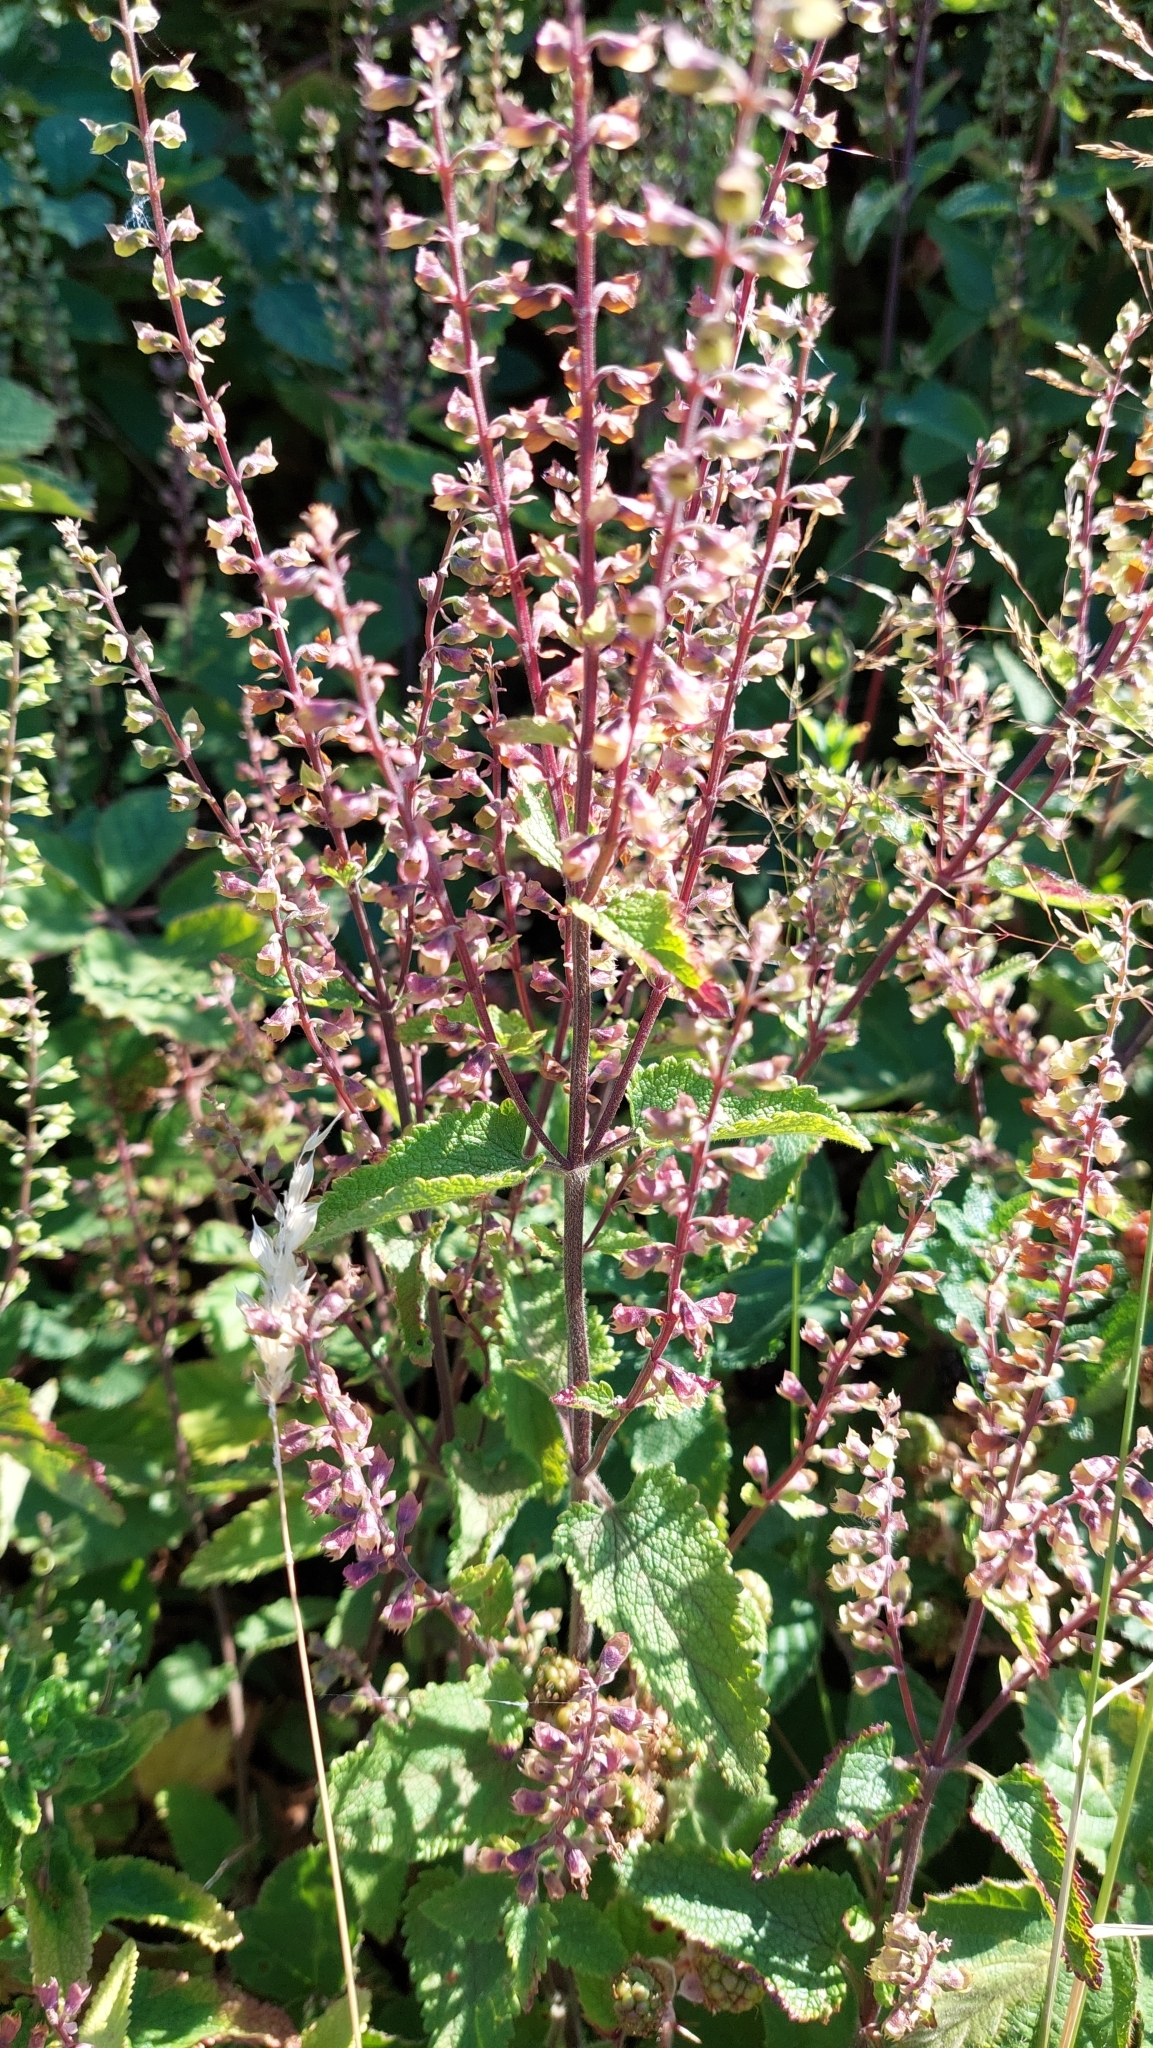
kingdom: Plantae
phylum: Tracheophyta
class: Magnoliopsida
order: Lamiales
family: Lamiaceae
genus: Teucrium
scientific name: Teucrium scorodonia
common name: Woodland germander
